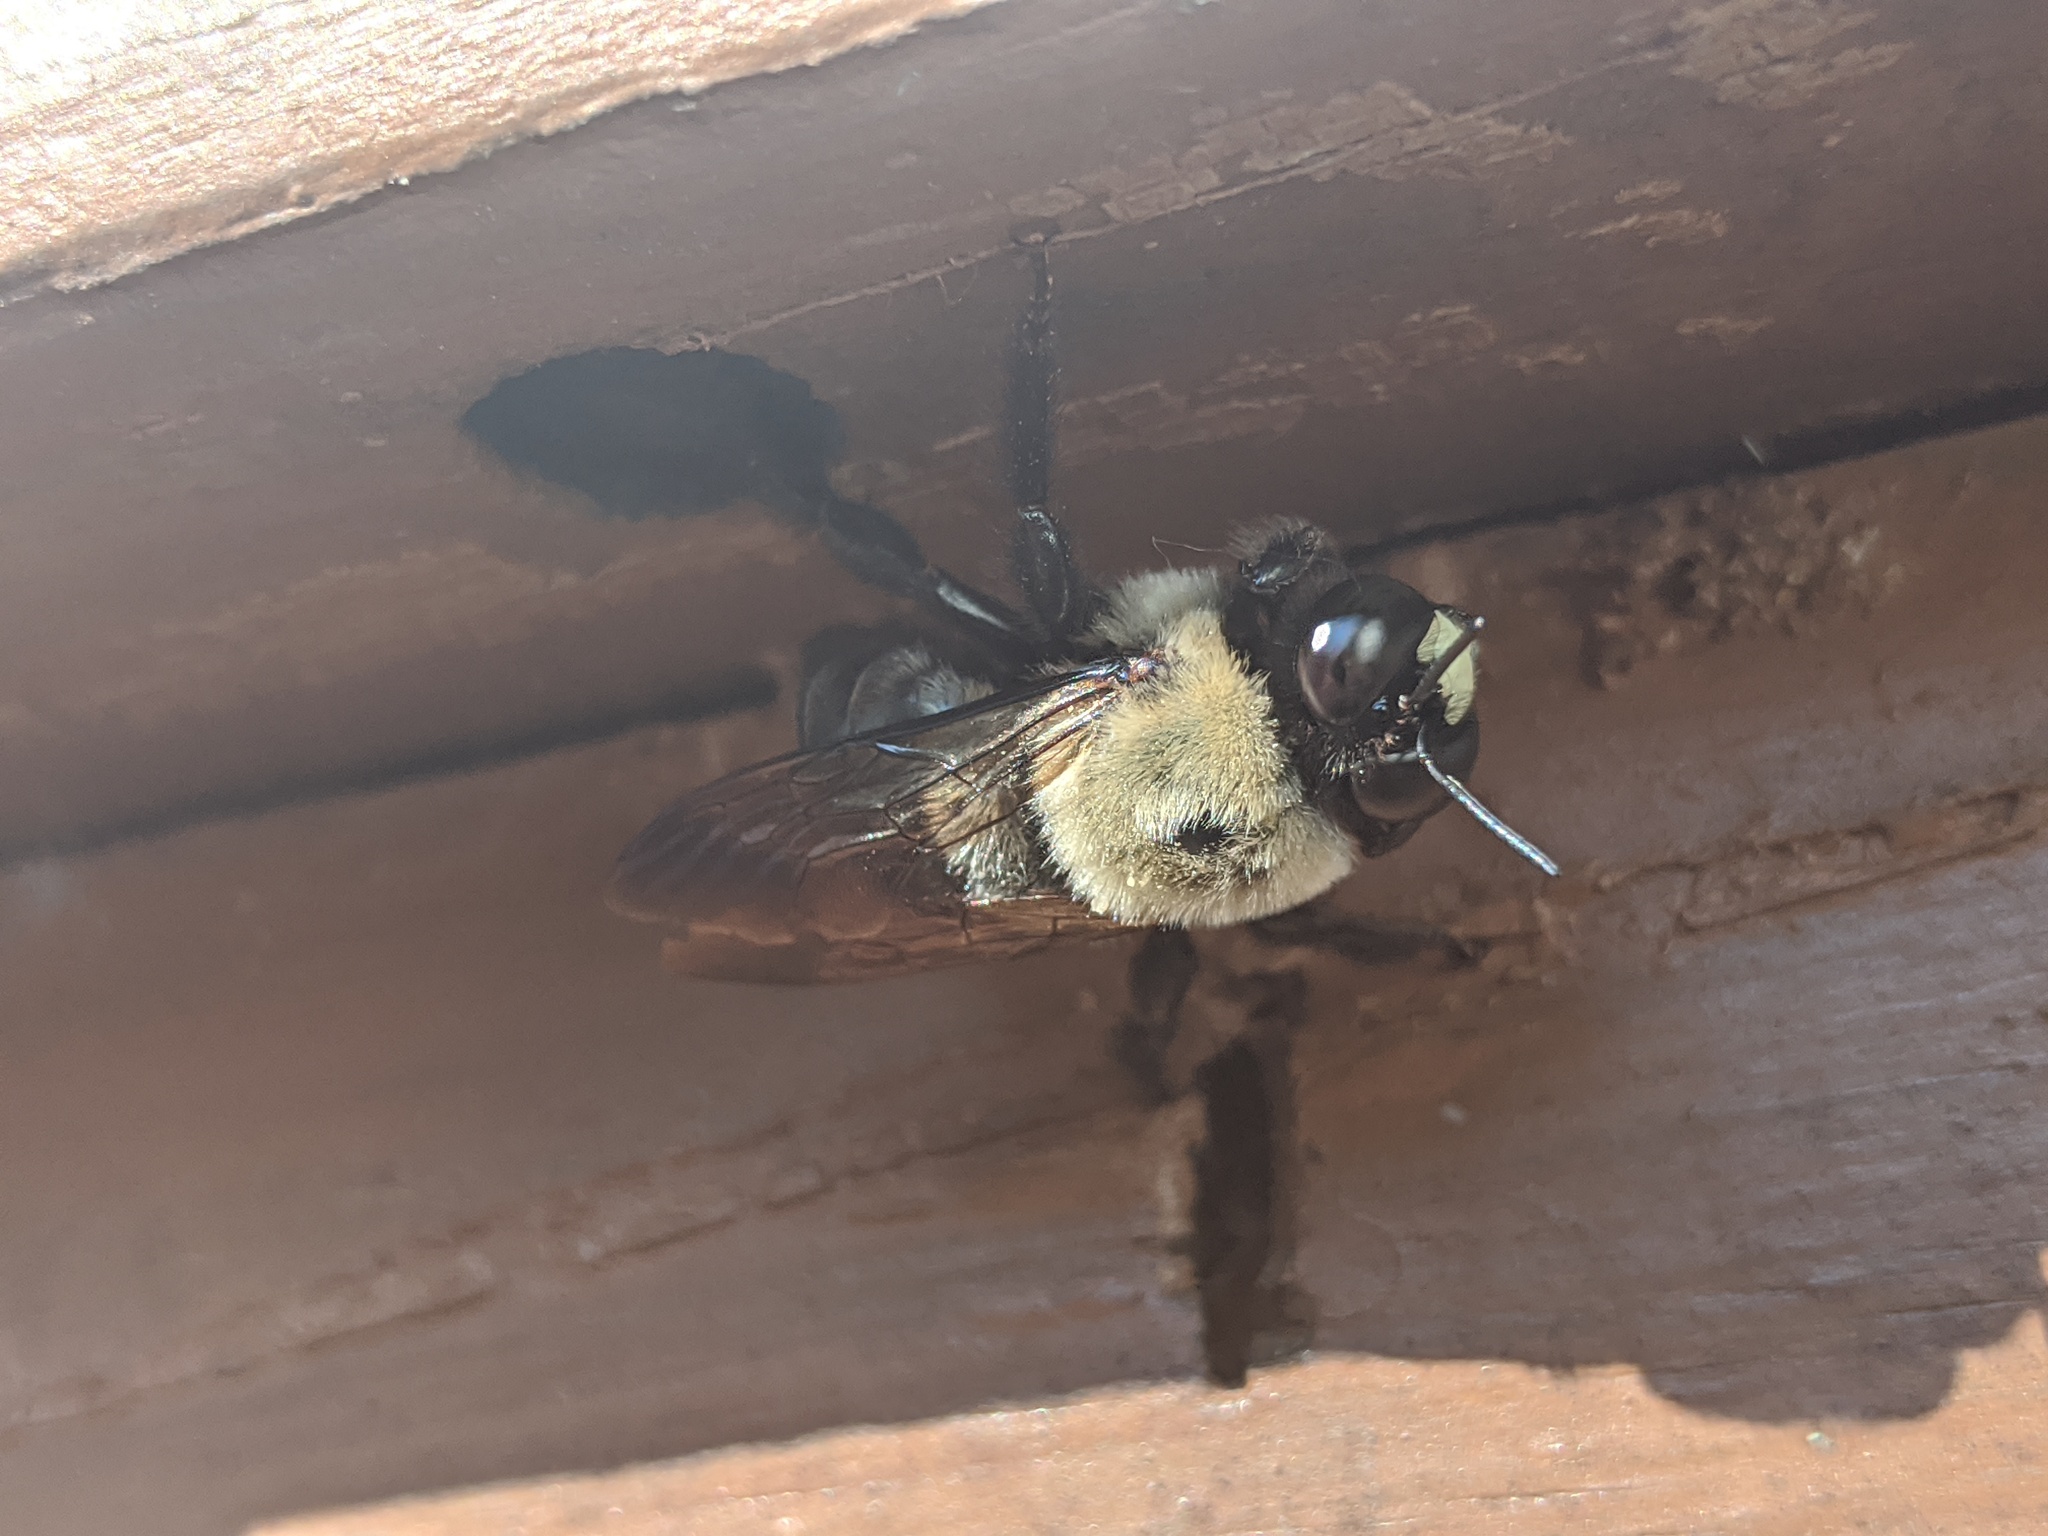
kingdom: Animalia
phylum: Arthropoda
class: Insecta
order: Hymenoptera
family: Apidae
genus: Xylocopa
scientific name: Xylocopa virginica
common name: Carpenter bee
